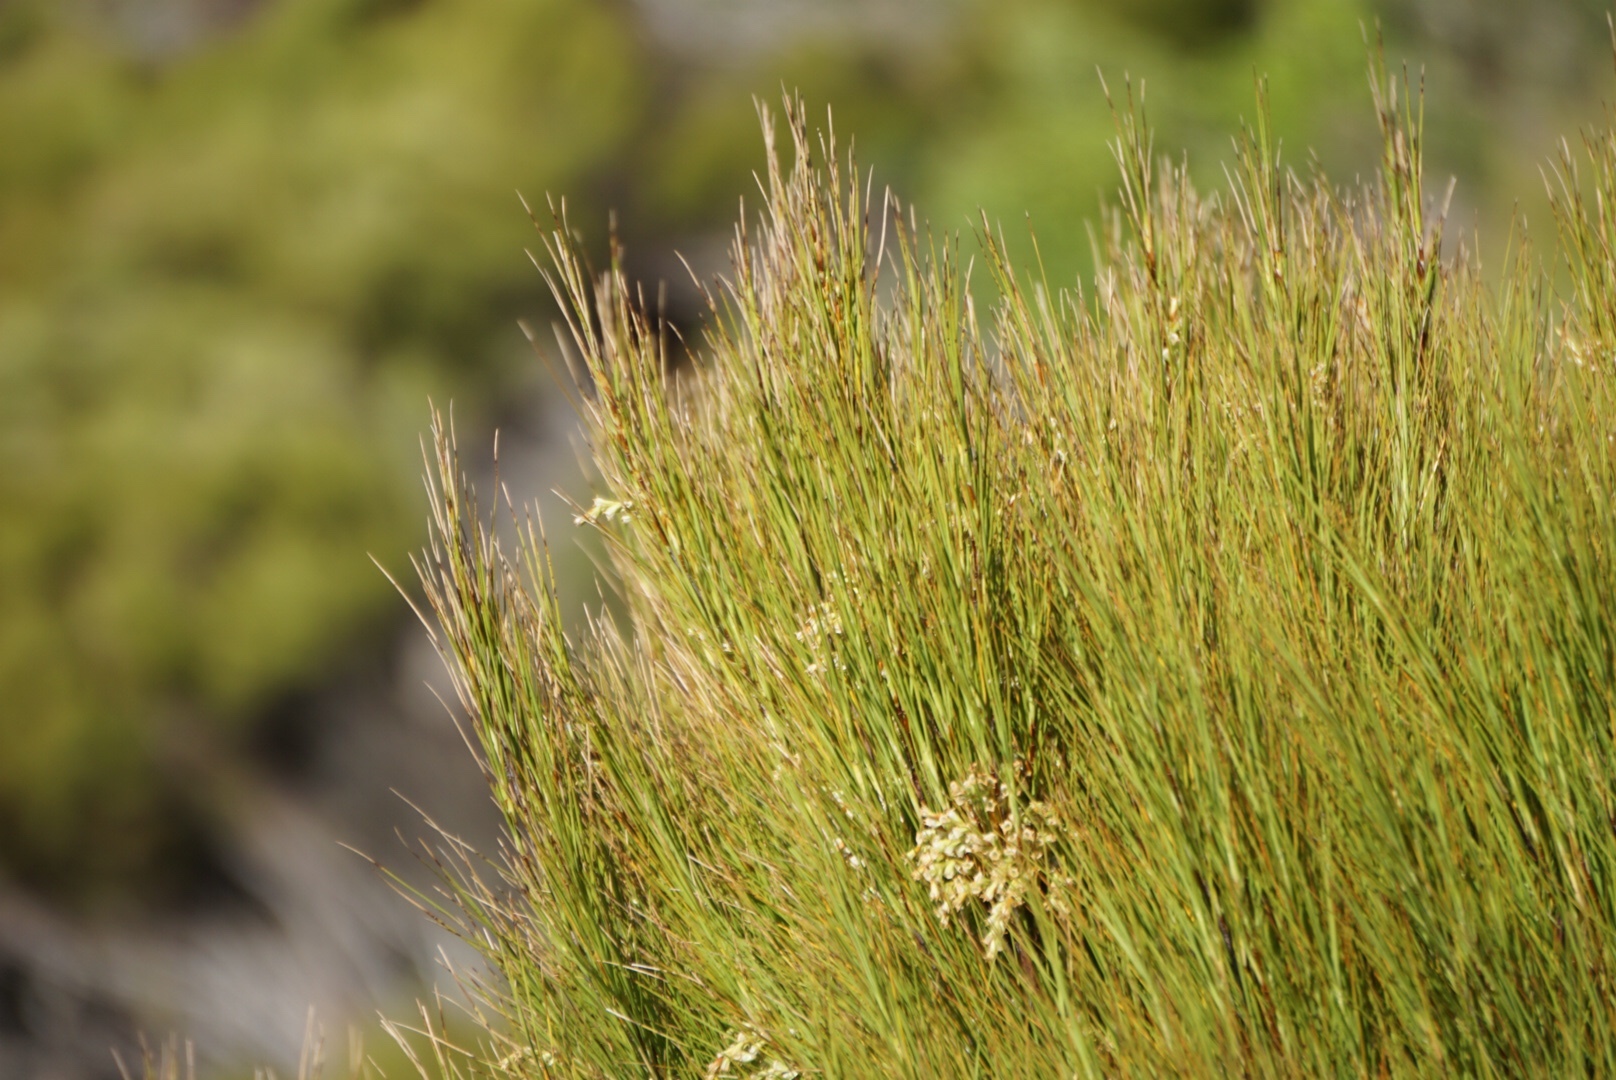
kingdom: Plantae
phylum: Tracheophyta
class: Magnoliopsida
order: Ericales
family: Ericaceae
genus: Dracophyllum
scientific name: Dracophyllum filifolium
